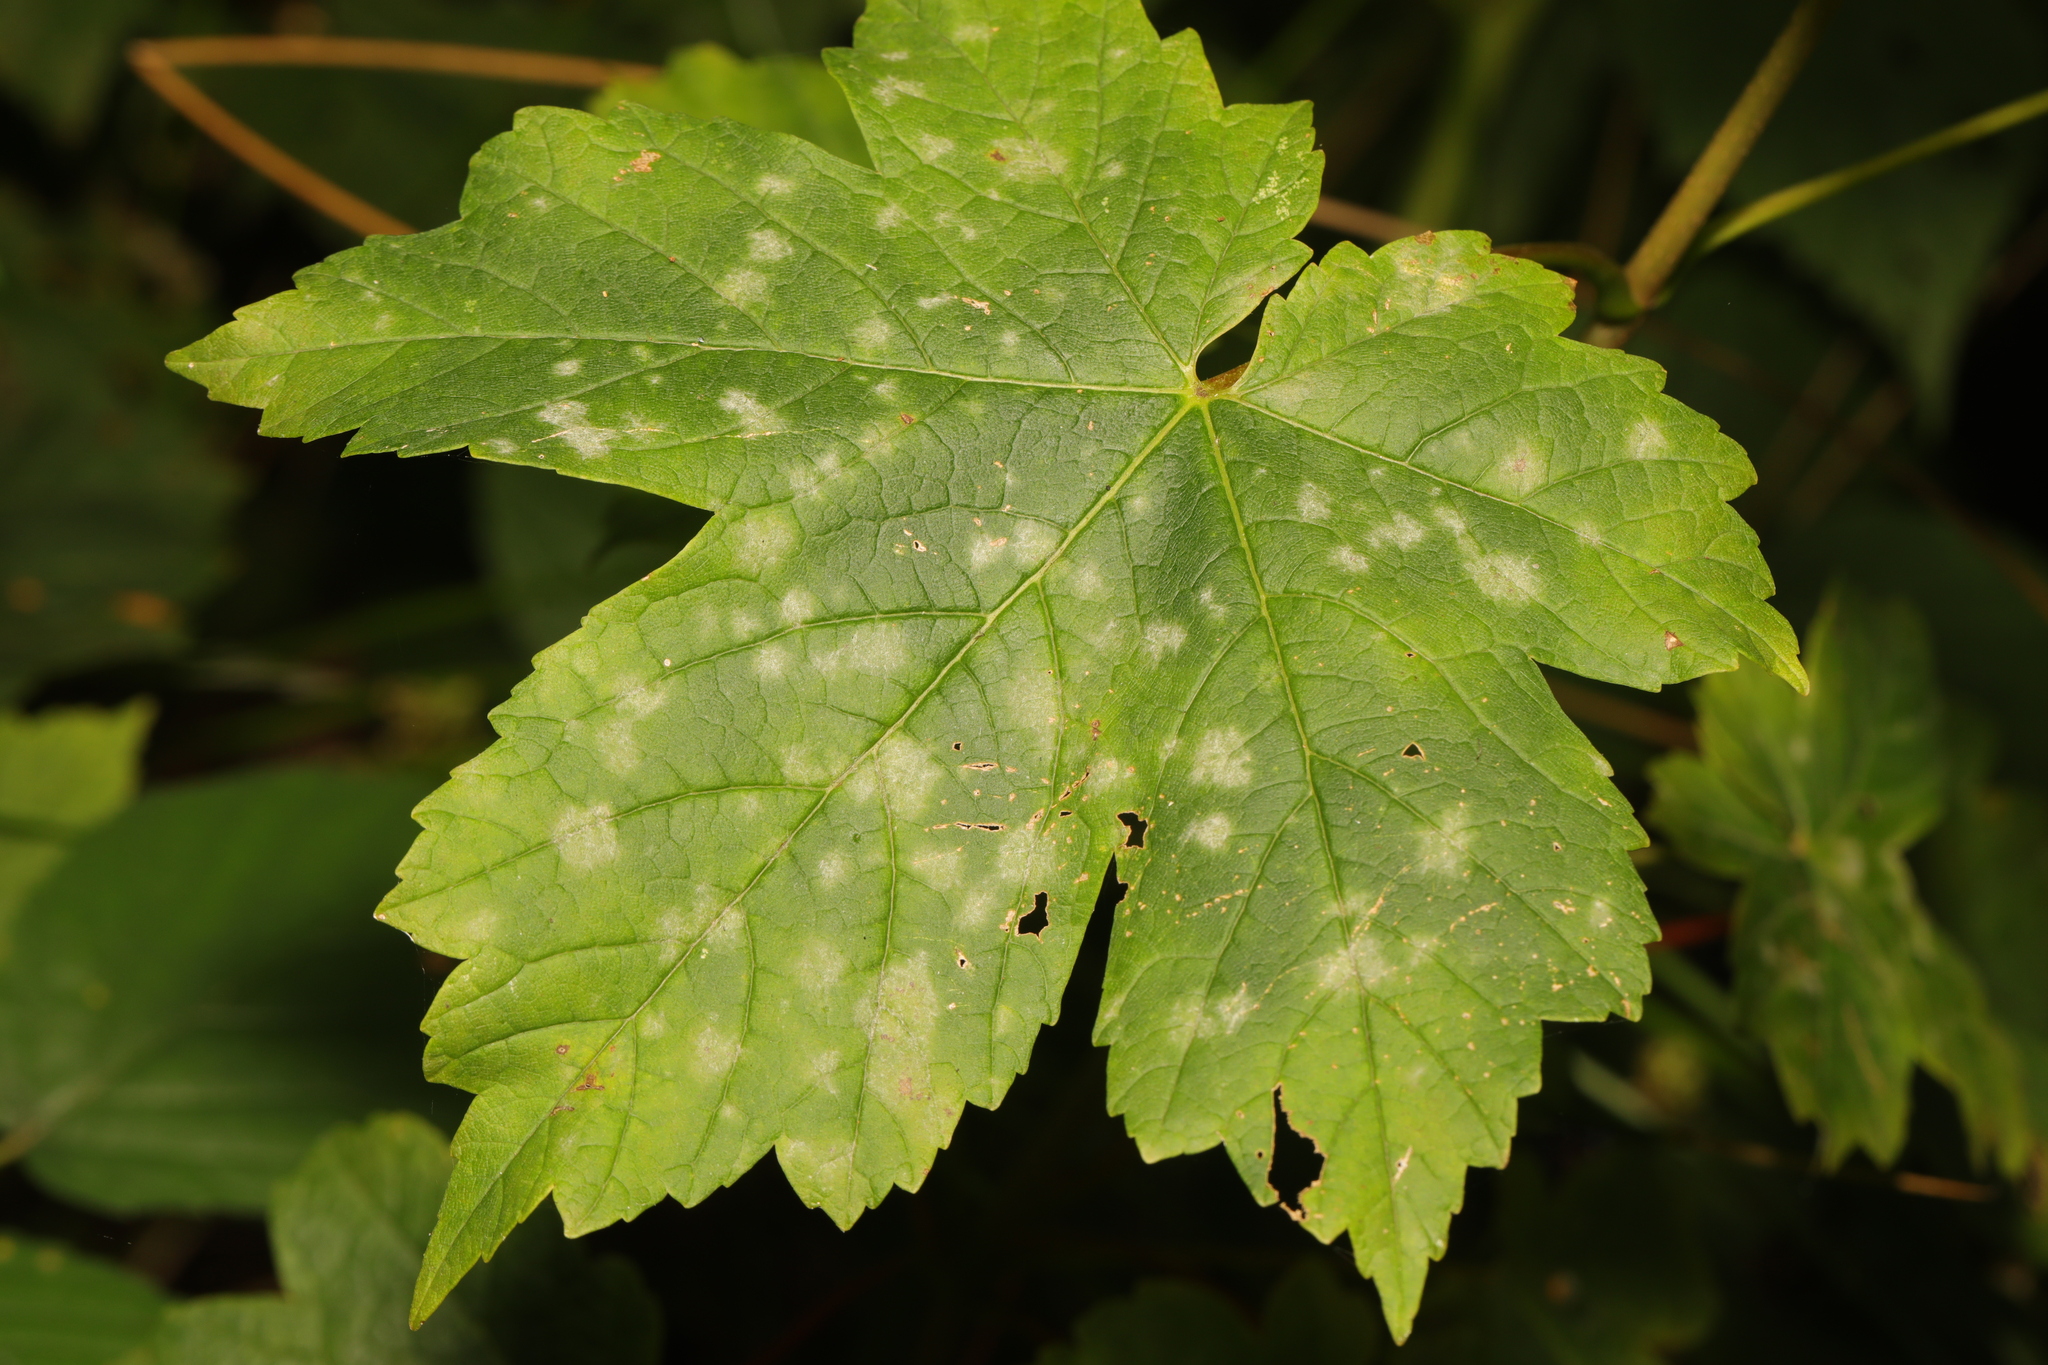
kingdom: Fungi
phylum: Ascomycota
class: Leotiomycetes
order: Helotiales
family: Erysiphaceae
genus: Sawadaea
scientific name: Sawadaea bicornis
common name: Maple mildew
